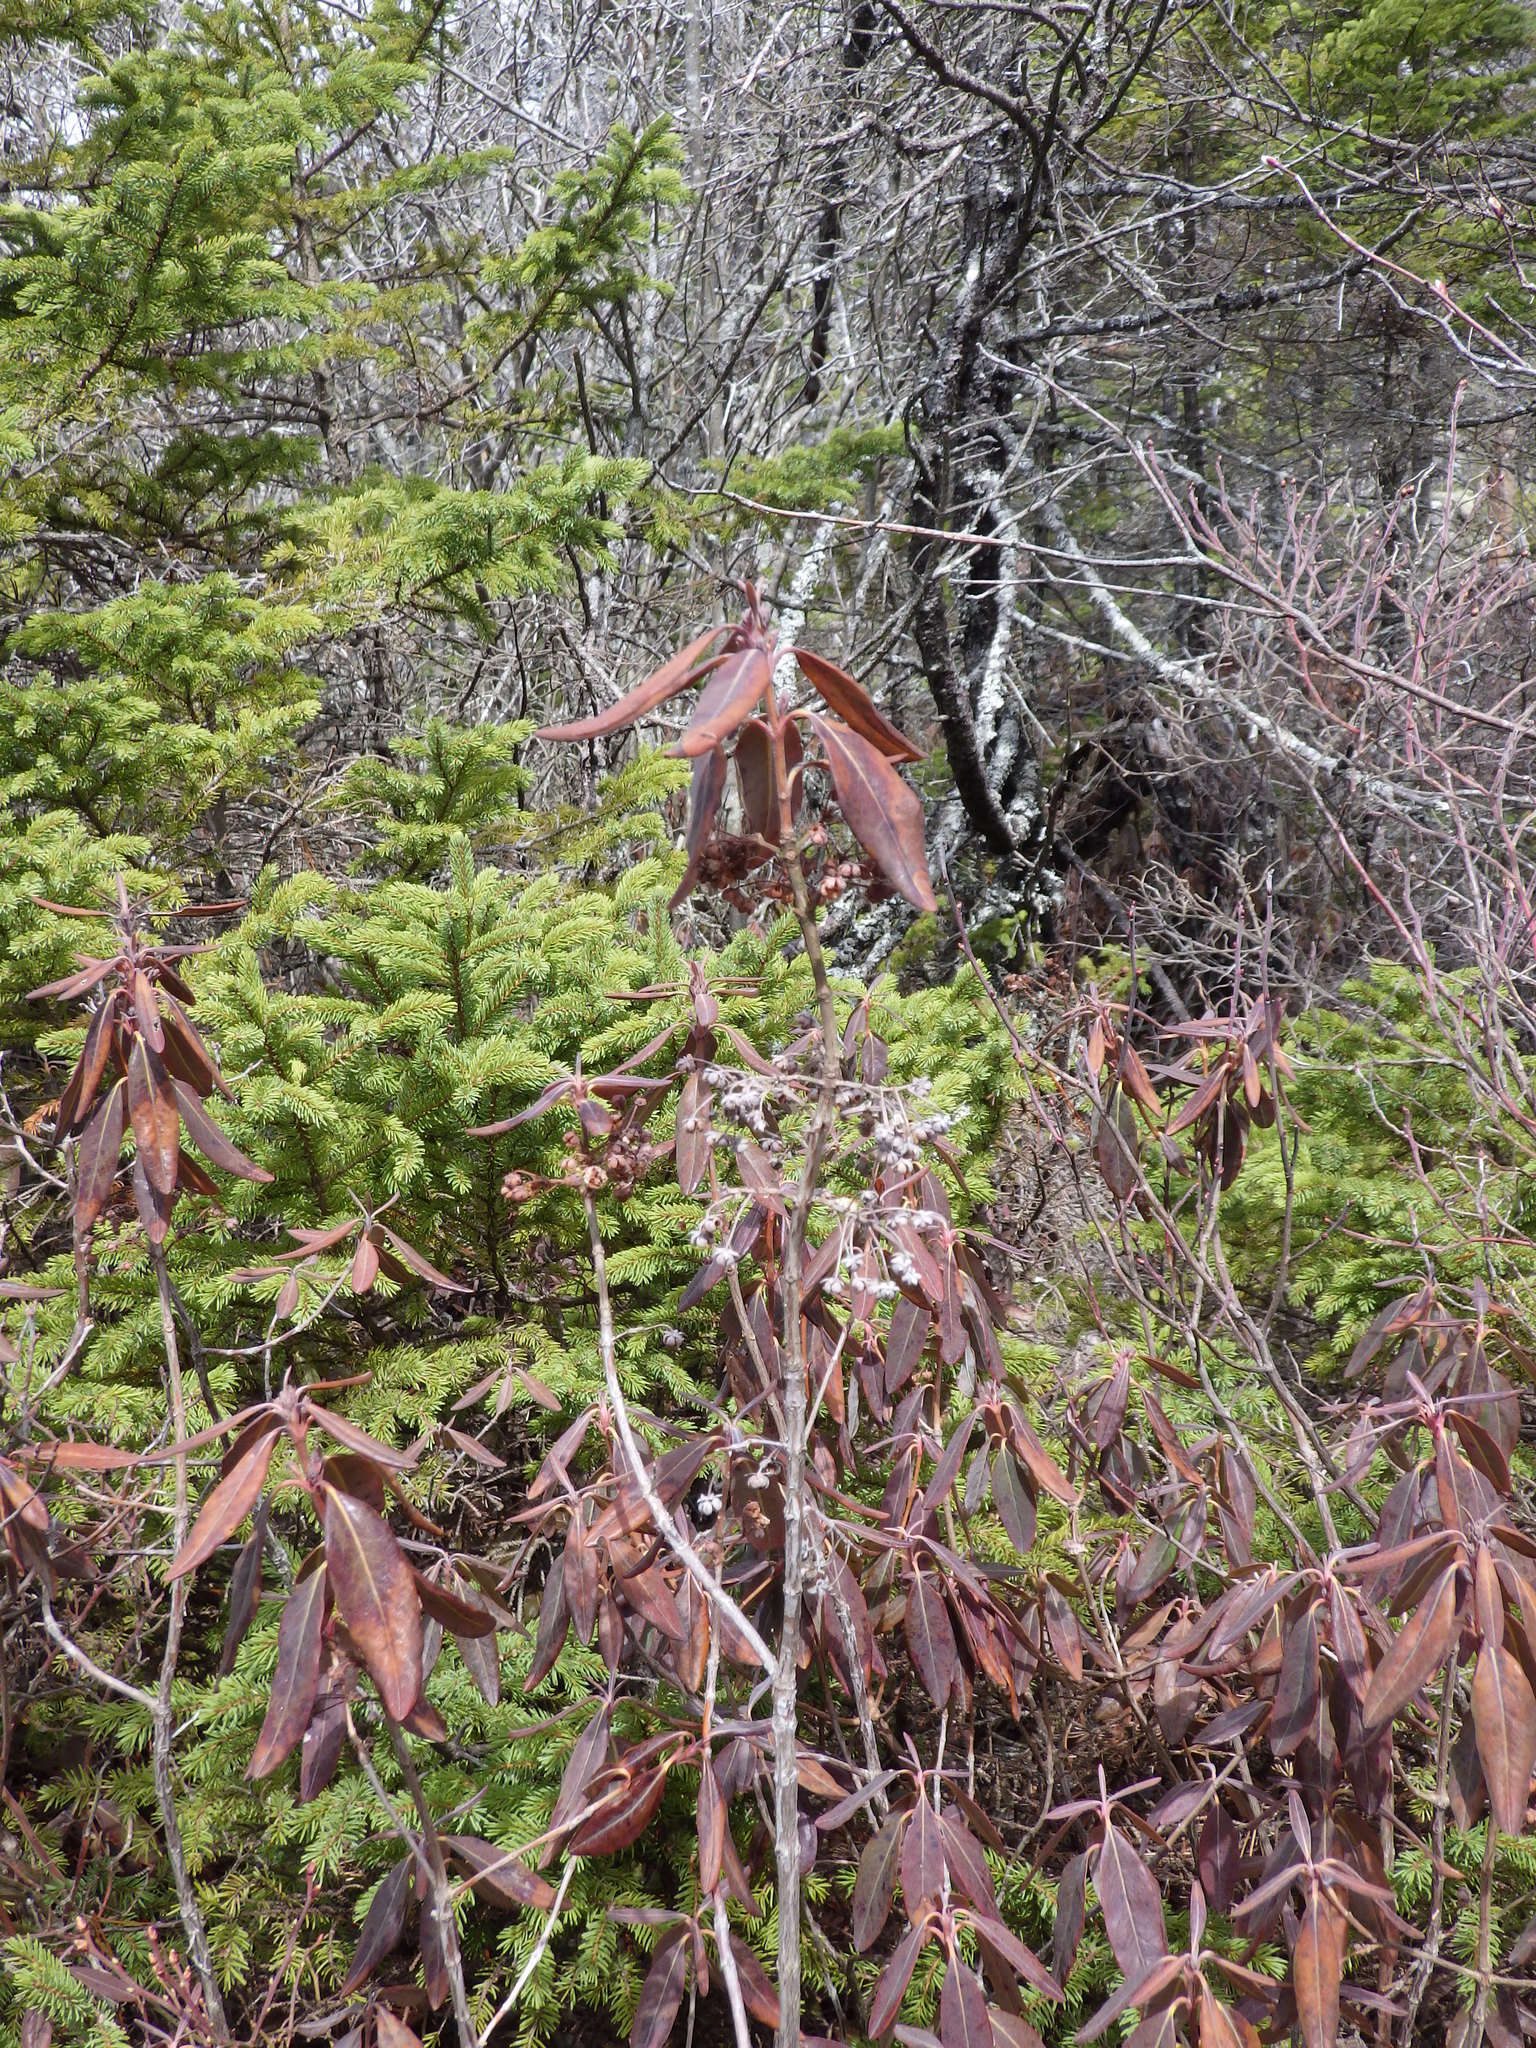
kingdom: Plantae
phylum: Tracheophyta
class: Magnoliopsida
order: Ericales
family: Ericaceae
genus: Kalmia
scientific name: Kalmia angustifolia
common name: Sheep-laurel
